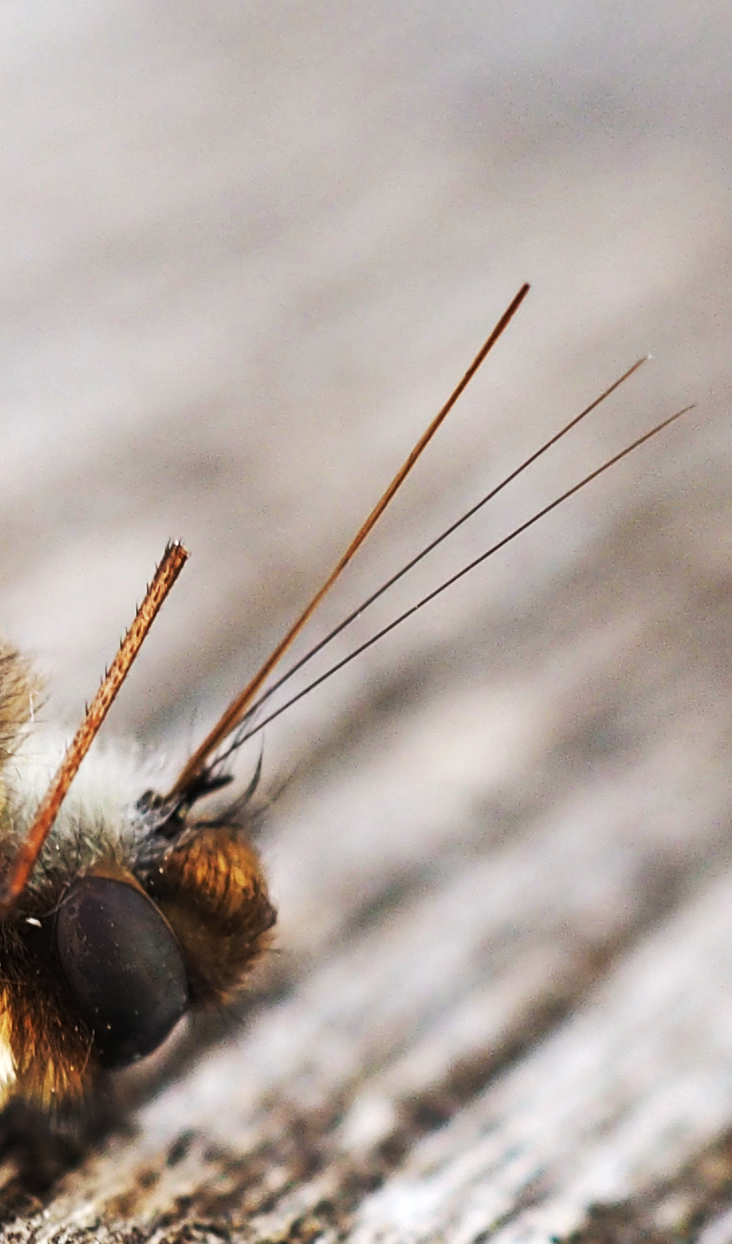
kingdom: Animalia
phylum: Arthropoda
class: Insecta
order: Diptera
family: Bombyliidae
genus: Bombylius
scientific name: Bombylius major
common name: Bee fly
